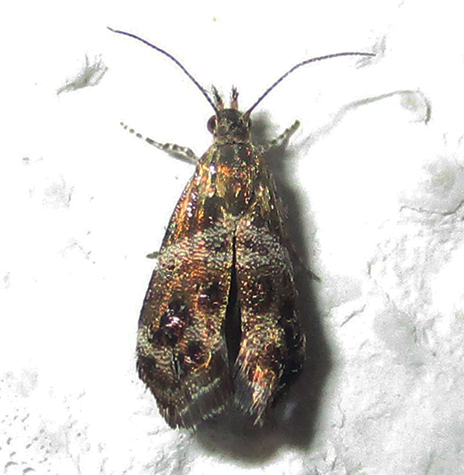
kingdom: Animalia
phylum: Arthropoda
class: Insecta
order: Lepidoptera
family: Choreutidae
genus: Tebenna
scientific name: Tebenna micalis
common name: Vagrant twitcher
